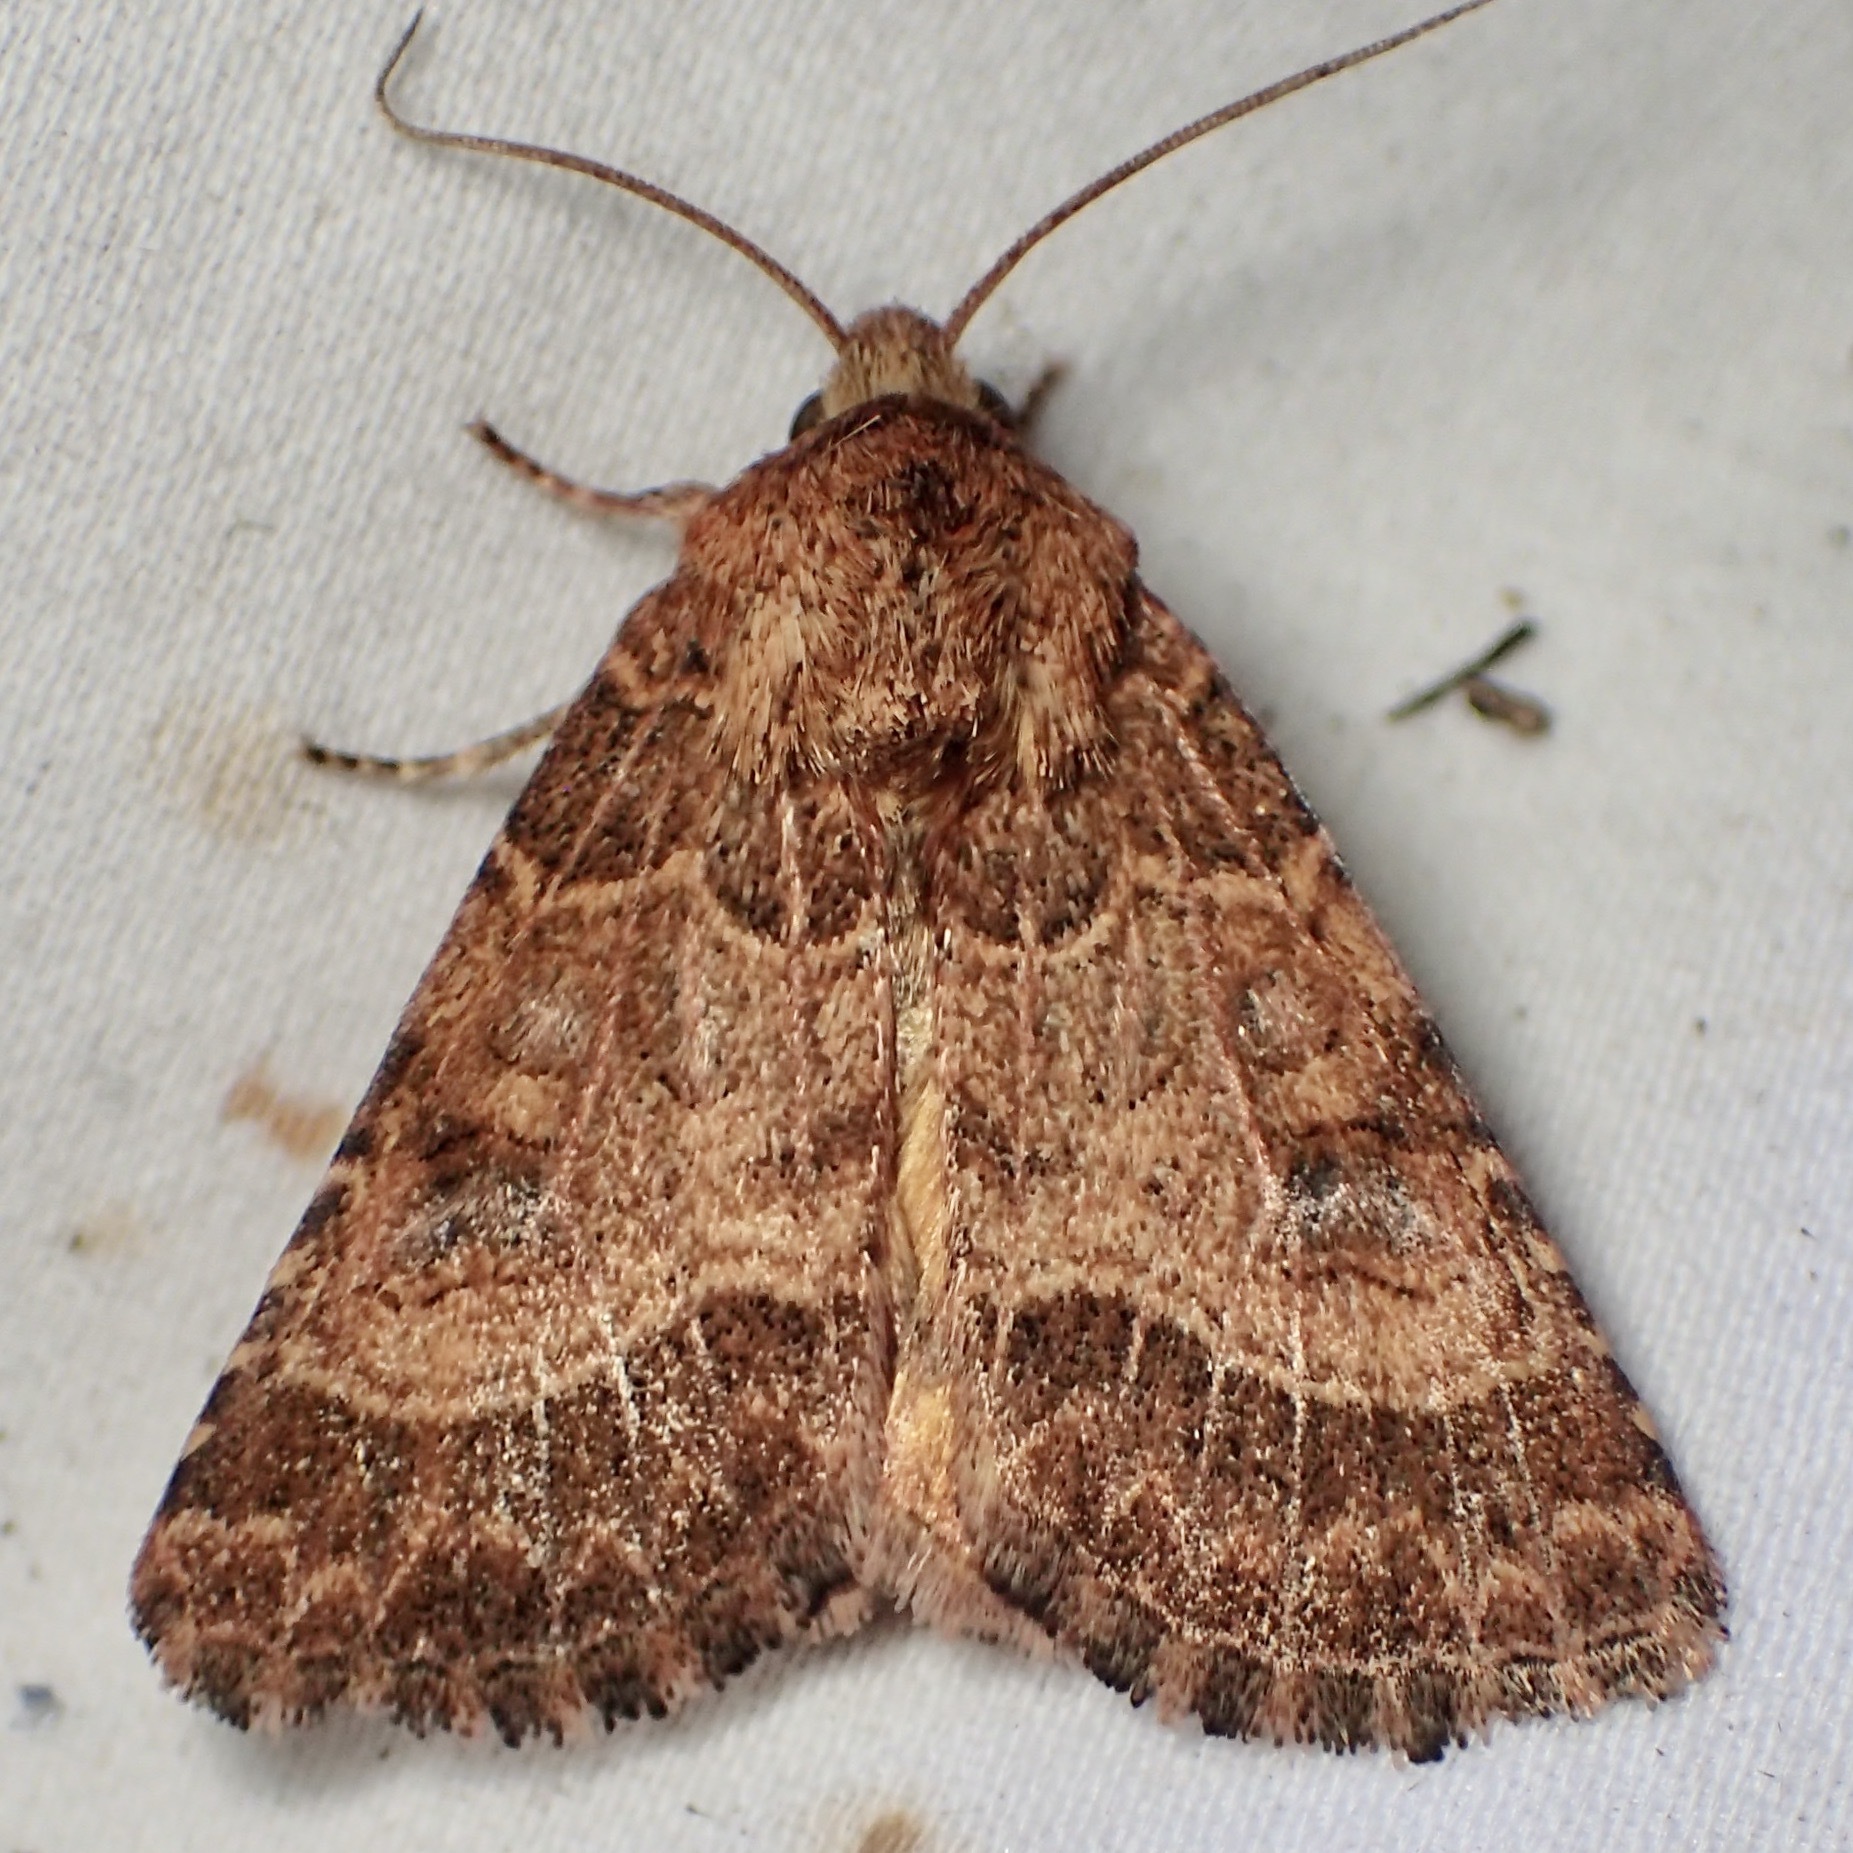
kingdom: Animalia
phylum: Arthropoda
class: Insecta
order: Lepidoptera
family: Noctuidae
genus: Schinia
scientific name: Schinia mexicana
